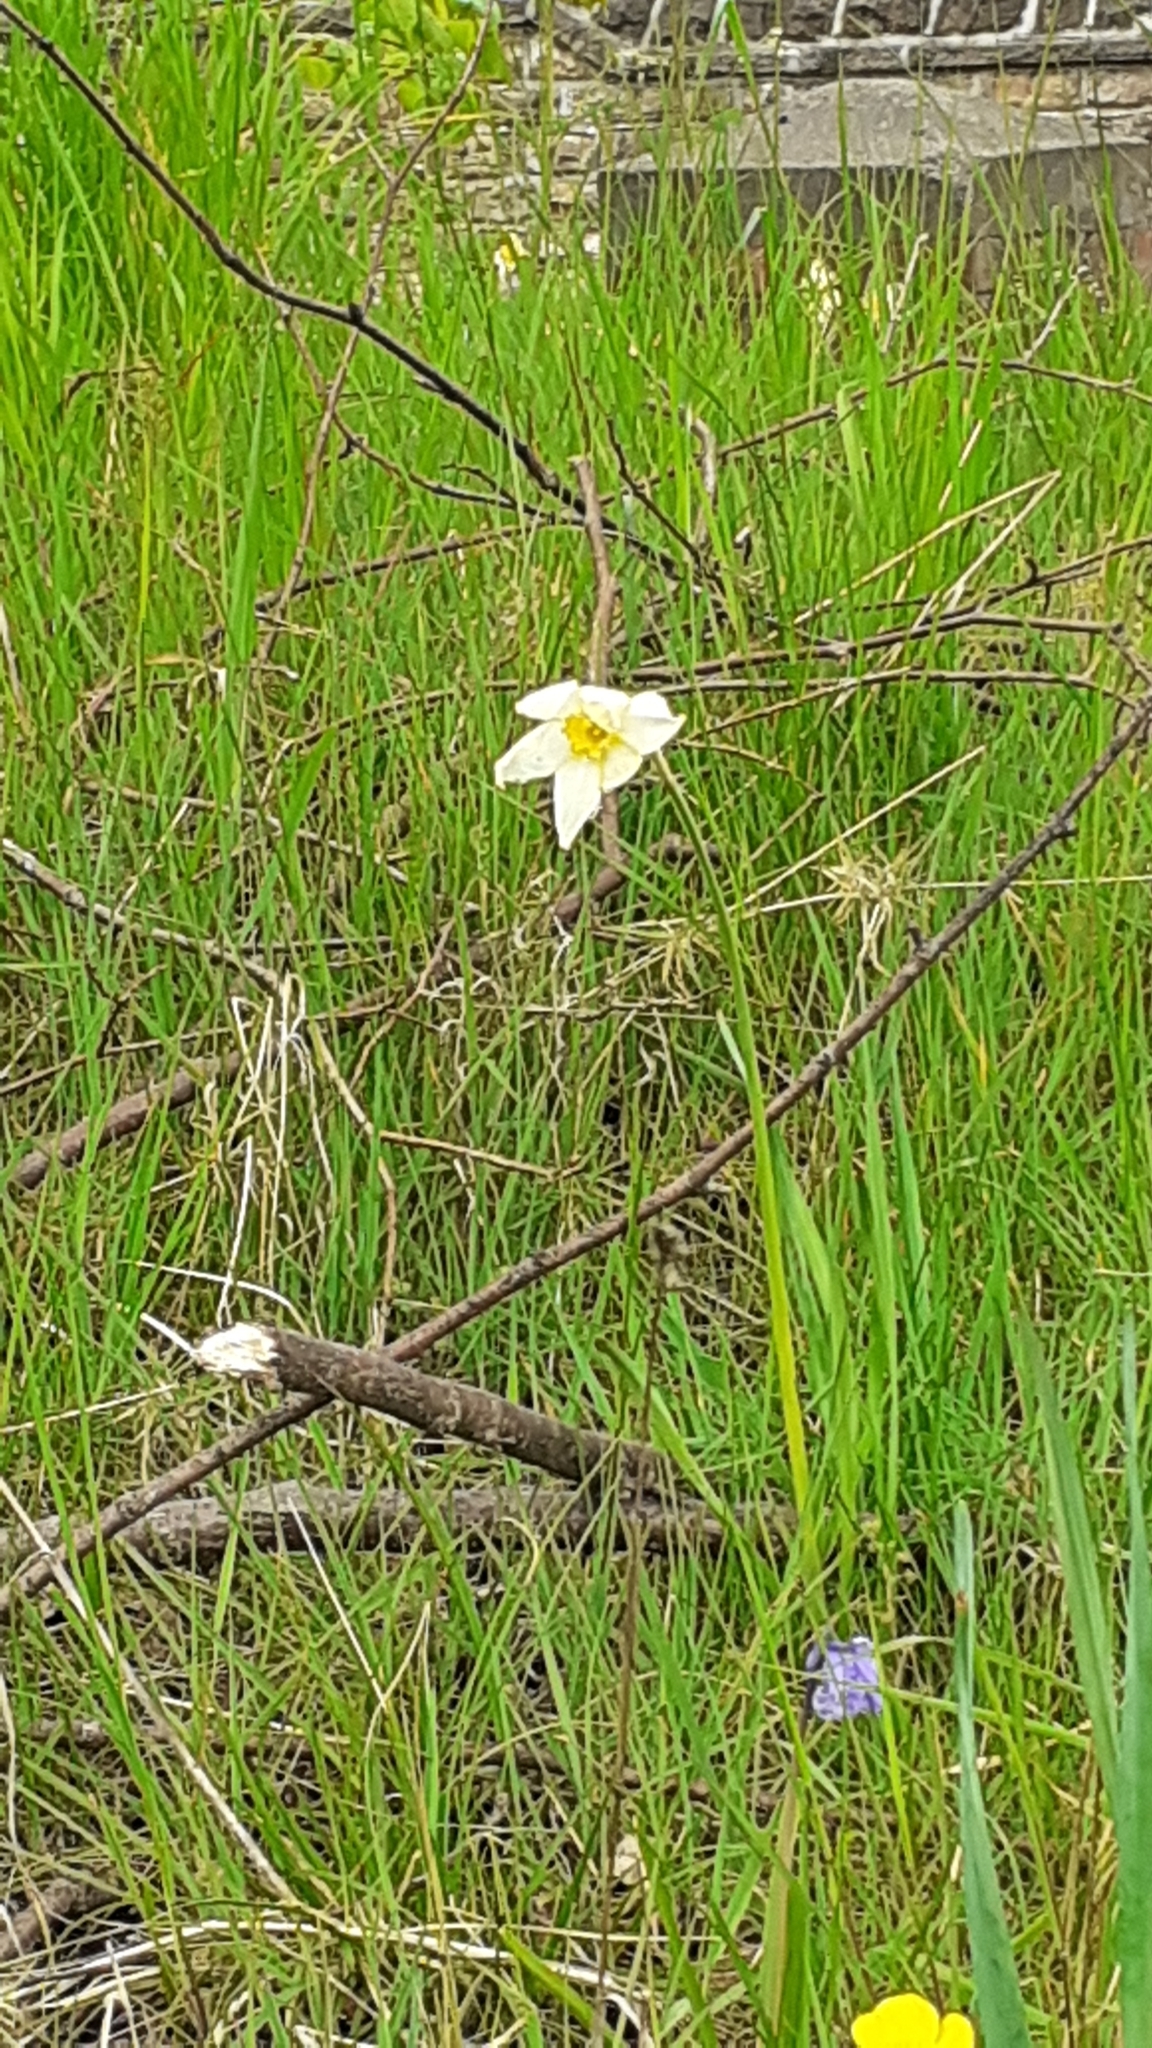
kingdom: Plantae
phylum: Tracheophyta
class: Liliopsida
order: Asparagales
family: Amaryllidaceae
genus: Narcissus
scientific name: Narcissus poeticus
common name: Pheasant's-eye daffodil
